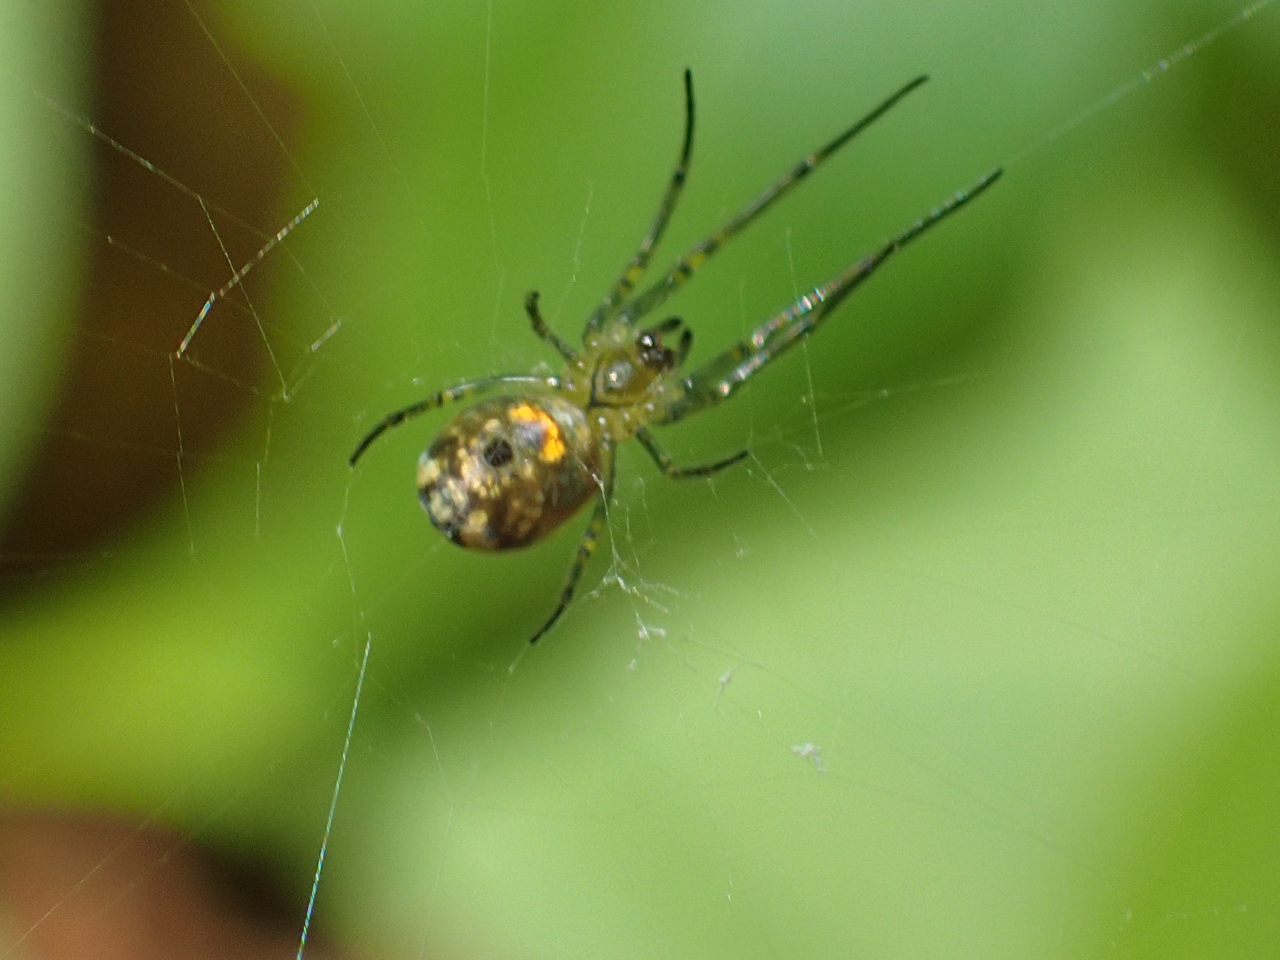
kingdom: Animalia
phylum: Arthropoda
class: Arachnida
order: Araneae
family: Tetragnathidae
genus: Leucauge
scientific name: Leucauge venusta
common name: Longjawed orb weavers
